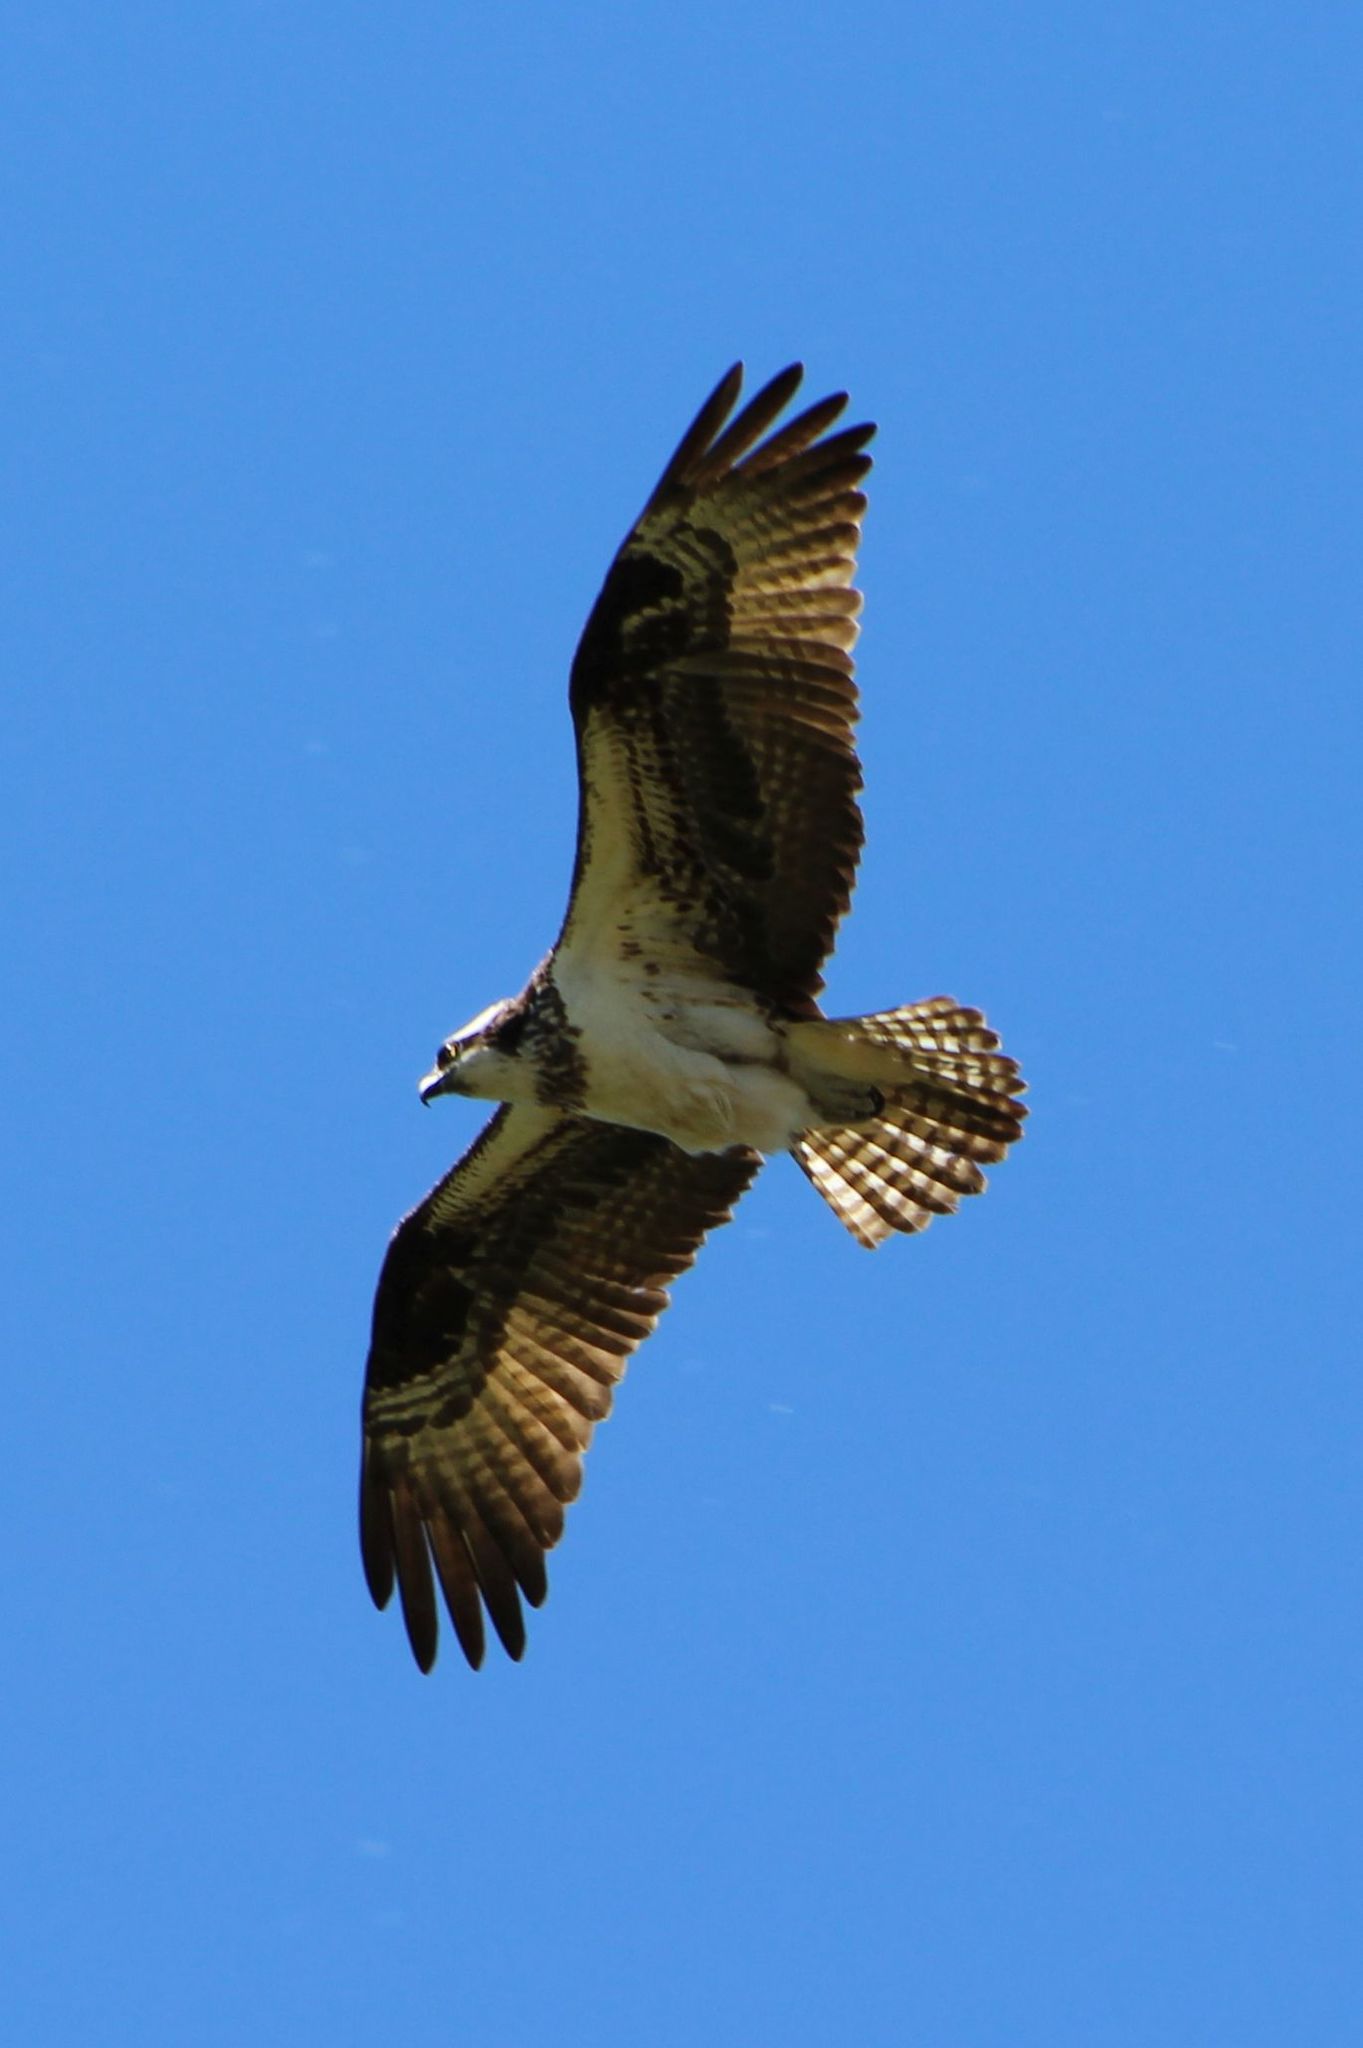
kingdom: Animalia
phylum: Chordata
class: Aves
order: Accipitriformes
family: Pandionidae
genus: Pandion
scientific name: Pandion haliaetus
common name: Osprey
